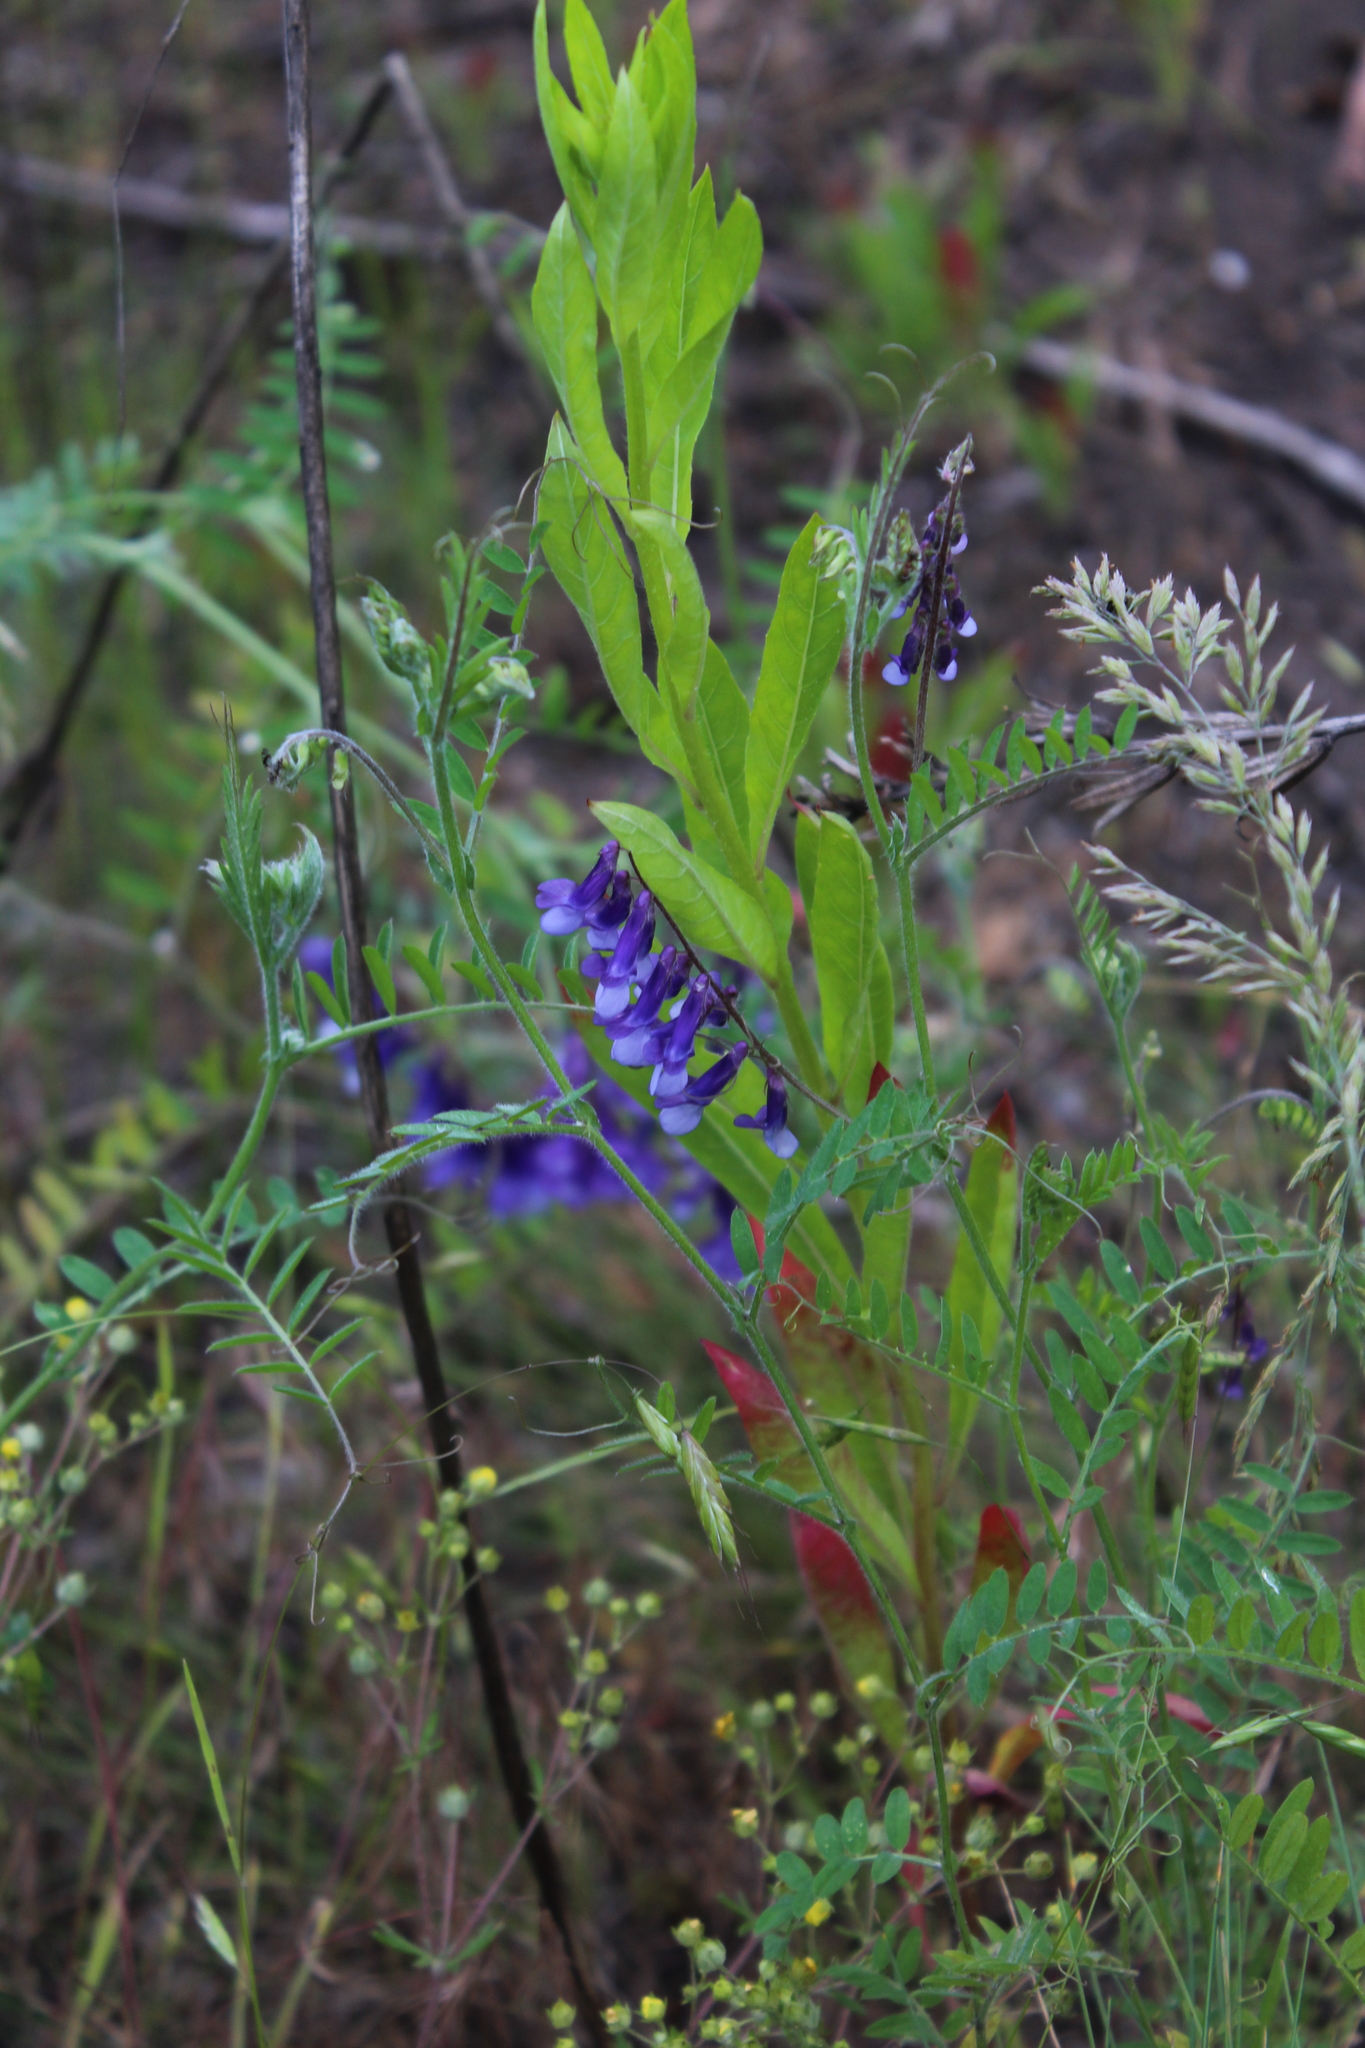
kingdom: Plantae
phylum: Tracheophyta
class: Magnoliopsida
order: Fabales
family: Fabaceae
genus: Vicia
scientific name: Vicia villosa
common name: Fodder vetch
